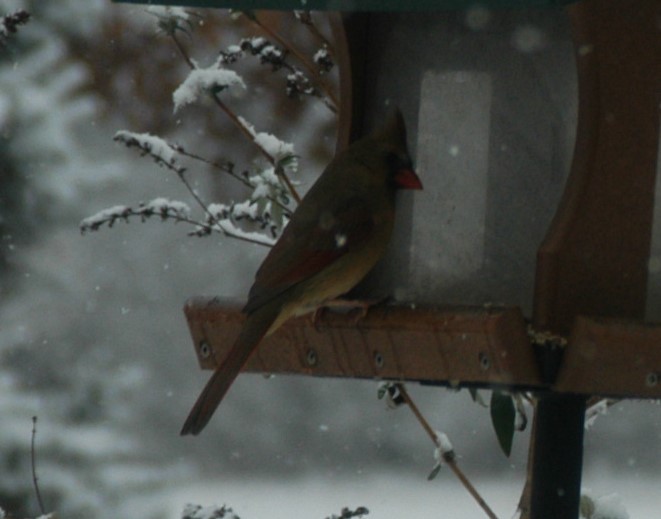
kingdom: Animalia
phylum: Chordata
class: Aves
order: Passeriformes
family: Cardinalidae
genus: Cardinalis
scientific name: Cardinalis cardinalis
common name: Northern cardinal
